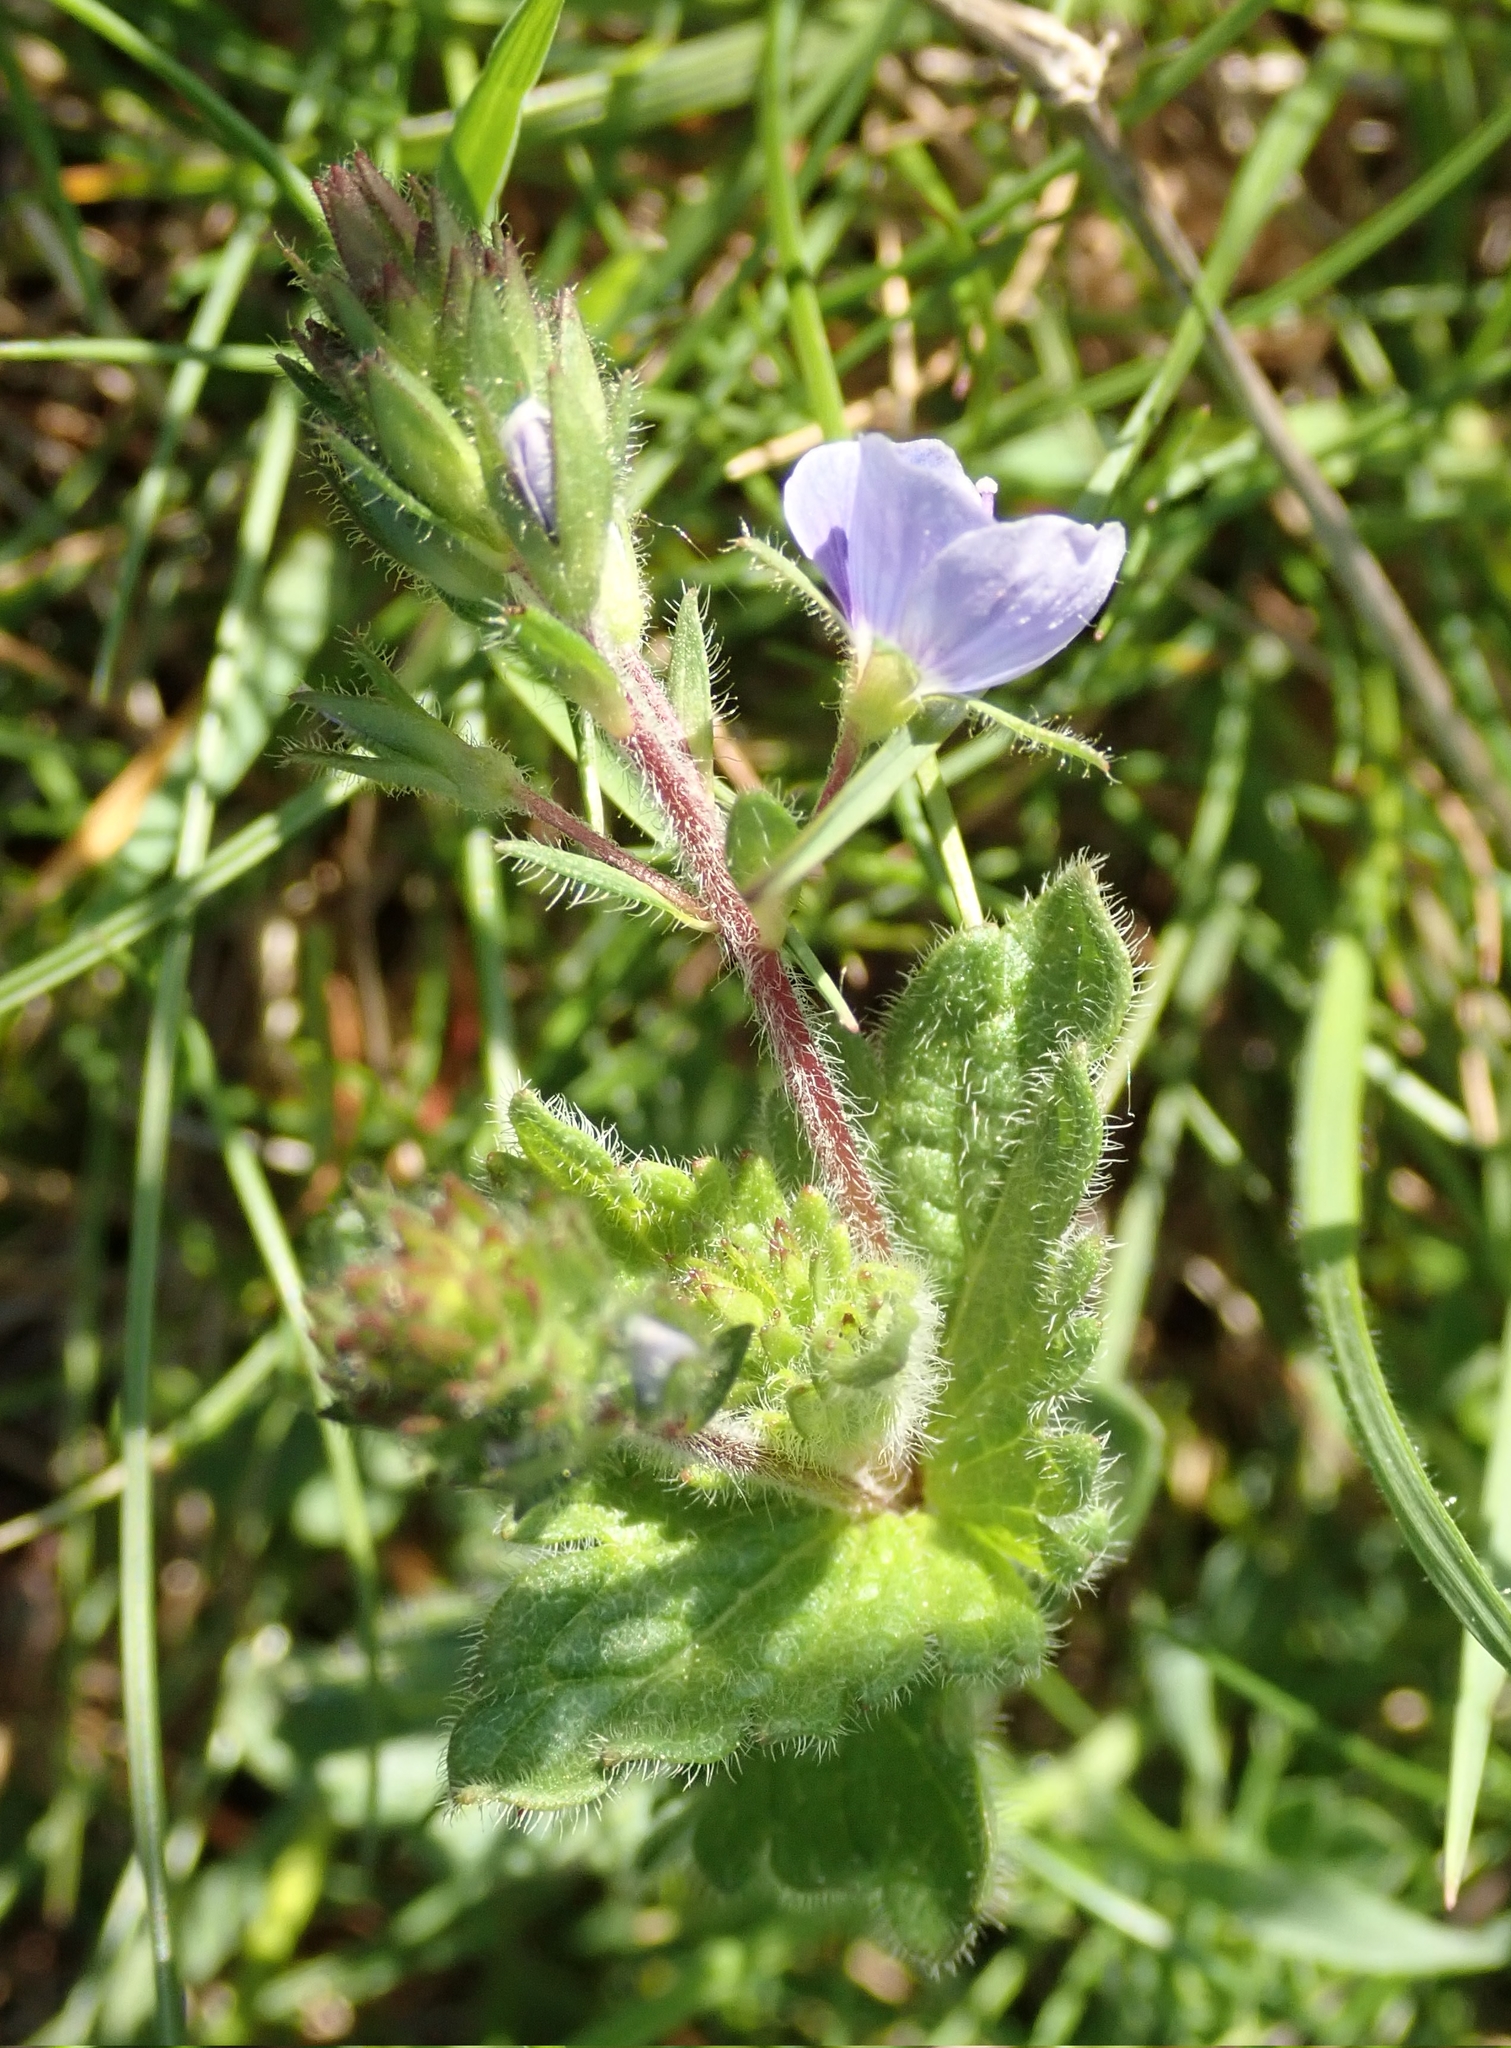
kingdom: Plantae
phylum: Tracheophyta
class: Magnoliopsida
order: Lamiales
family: Plantaginaceae
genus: Veronica
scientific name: Veronica chamaedrys
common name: Germander speedwell
